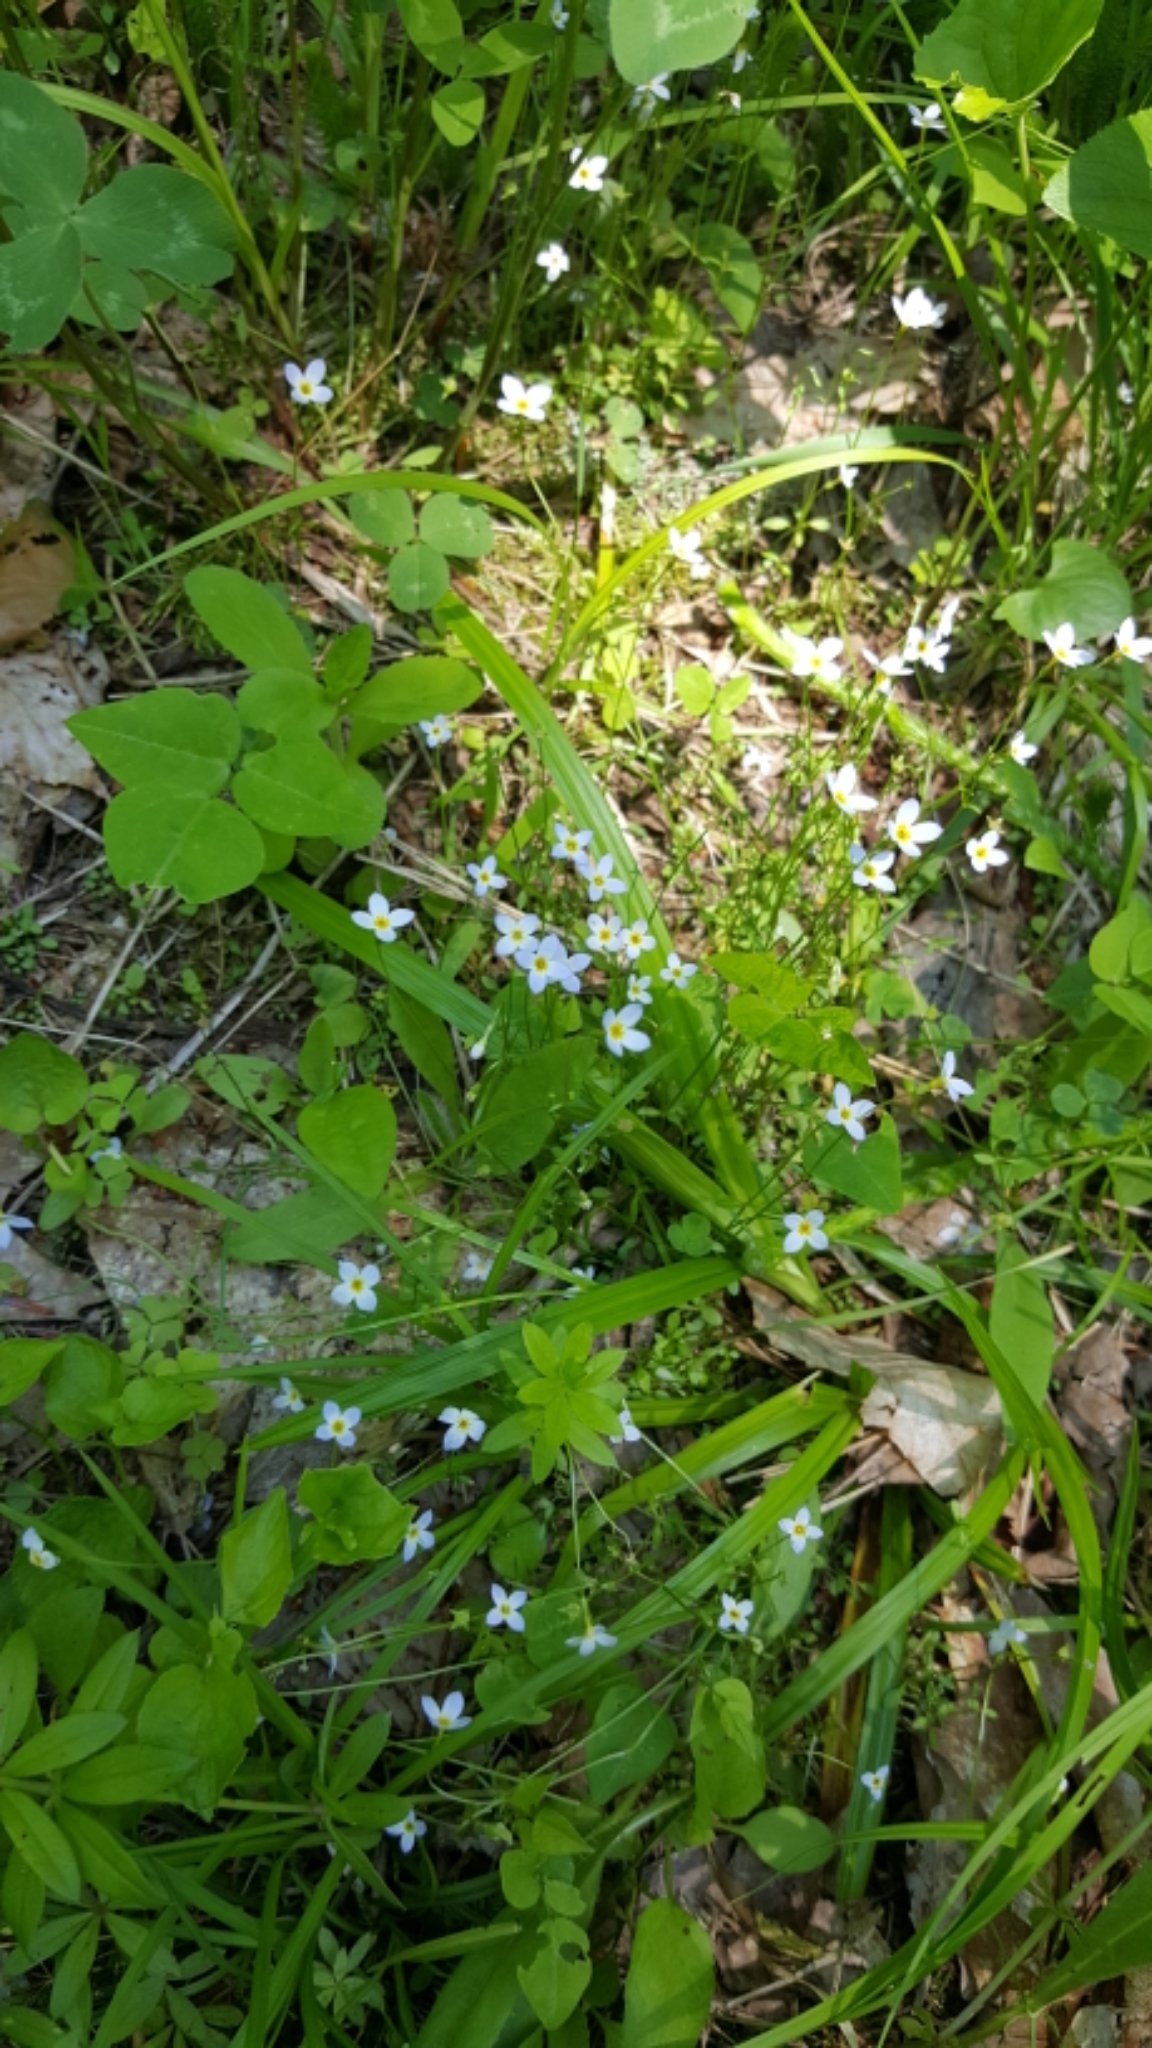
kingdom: Plantae
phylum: Tracheophyta
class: Magnoliopsida
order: Gentianales
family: Rubiaceae
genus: Houstonia
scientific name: Houstonia caerulea
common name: Bluets
